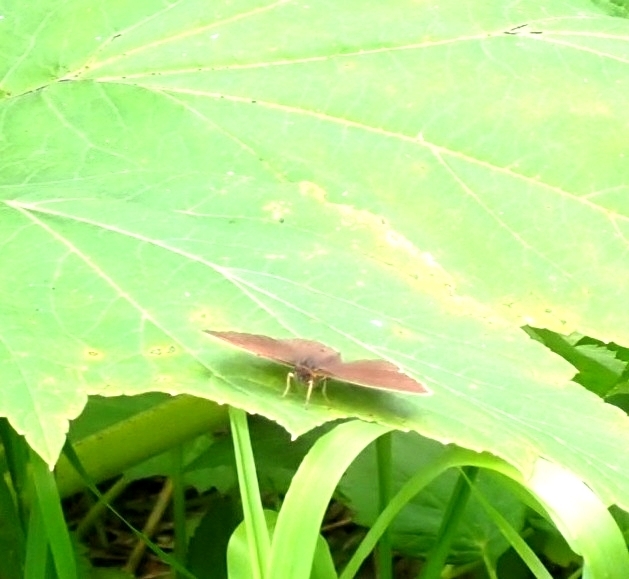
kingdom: Animalia
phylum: Arthropoda
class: Insecta
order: Lepidoptera
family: Nymphalidae
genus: Aphantopus
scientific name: Aphantopus hyperantus
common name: Ringlet
